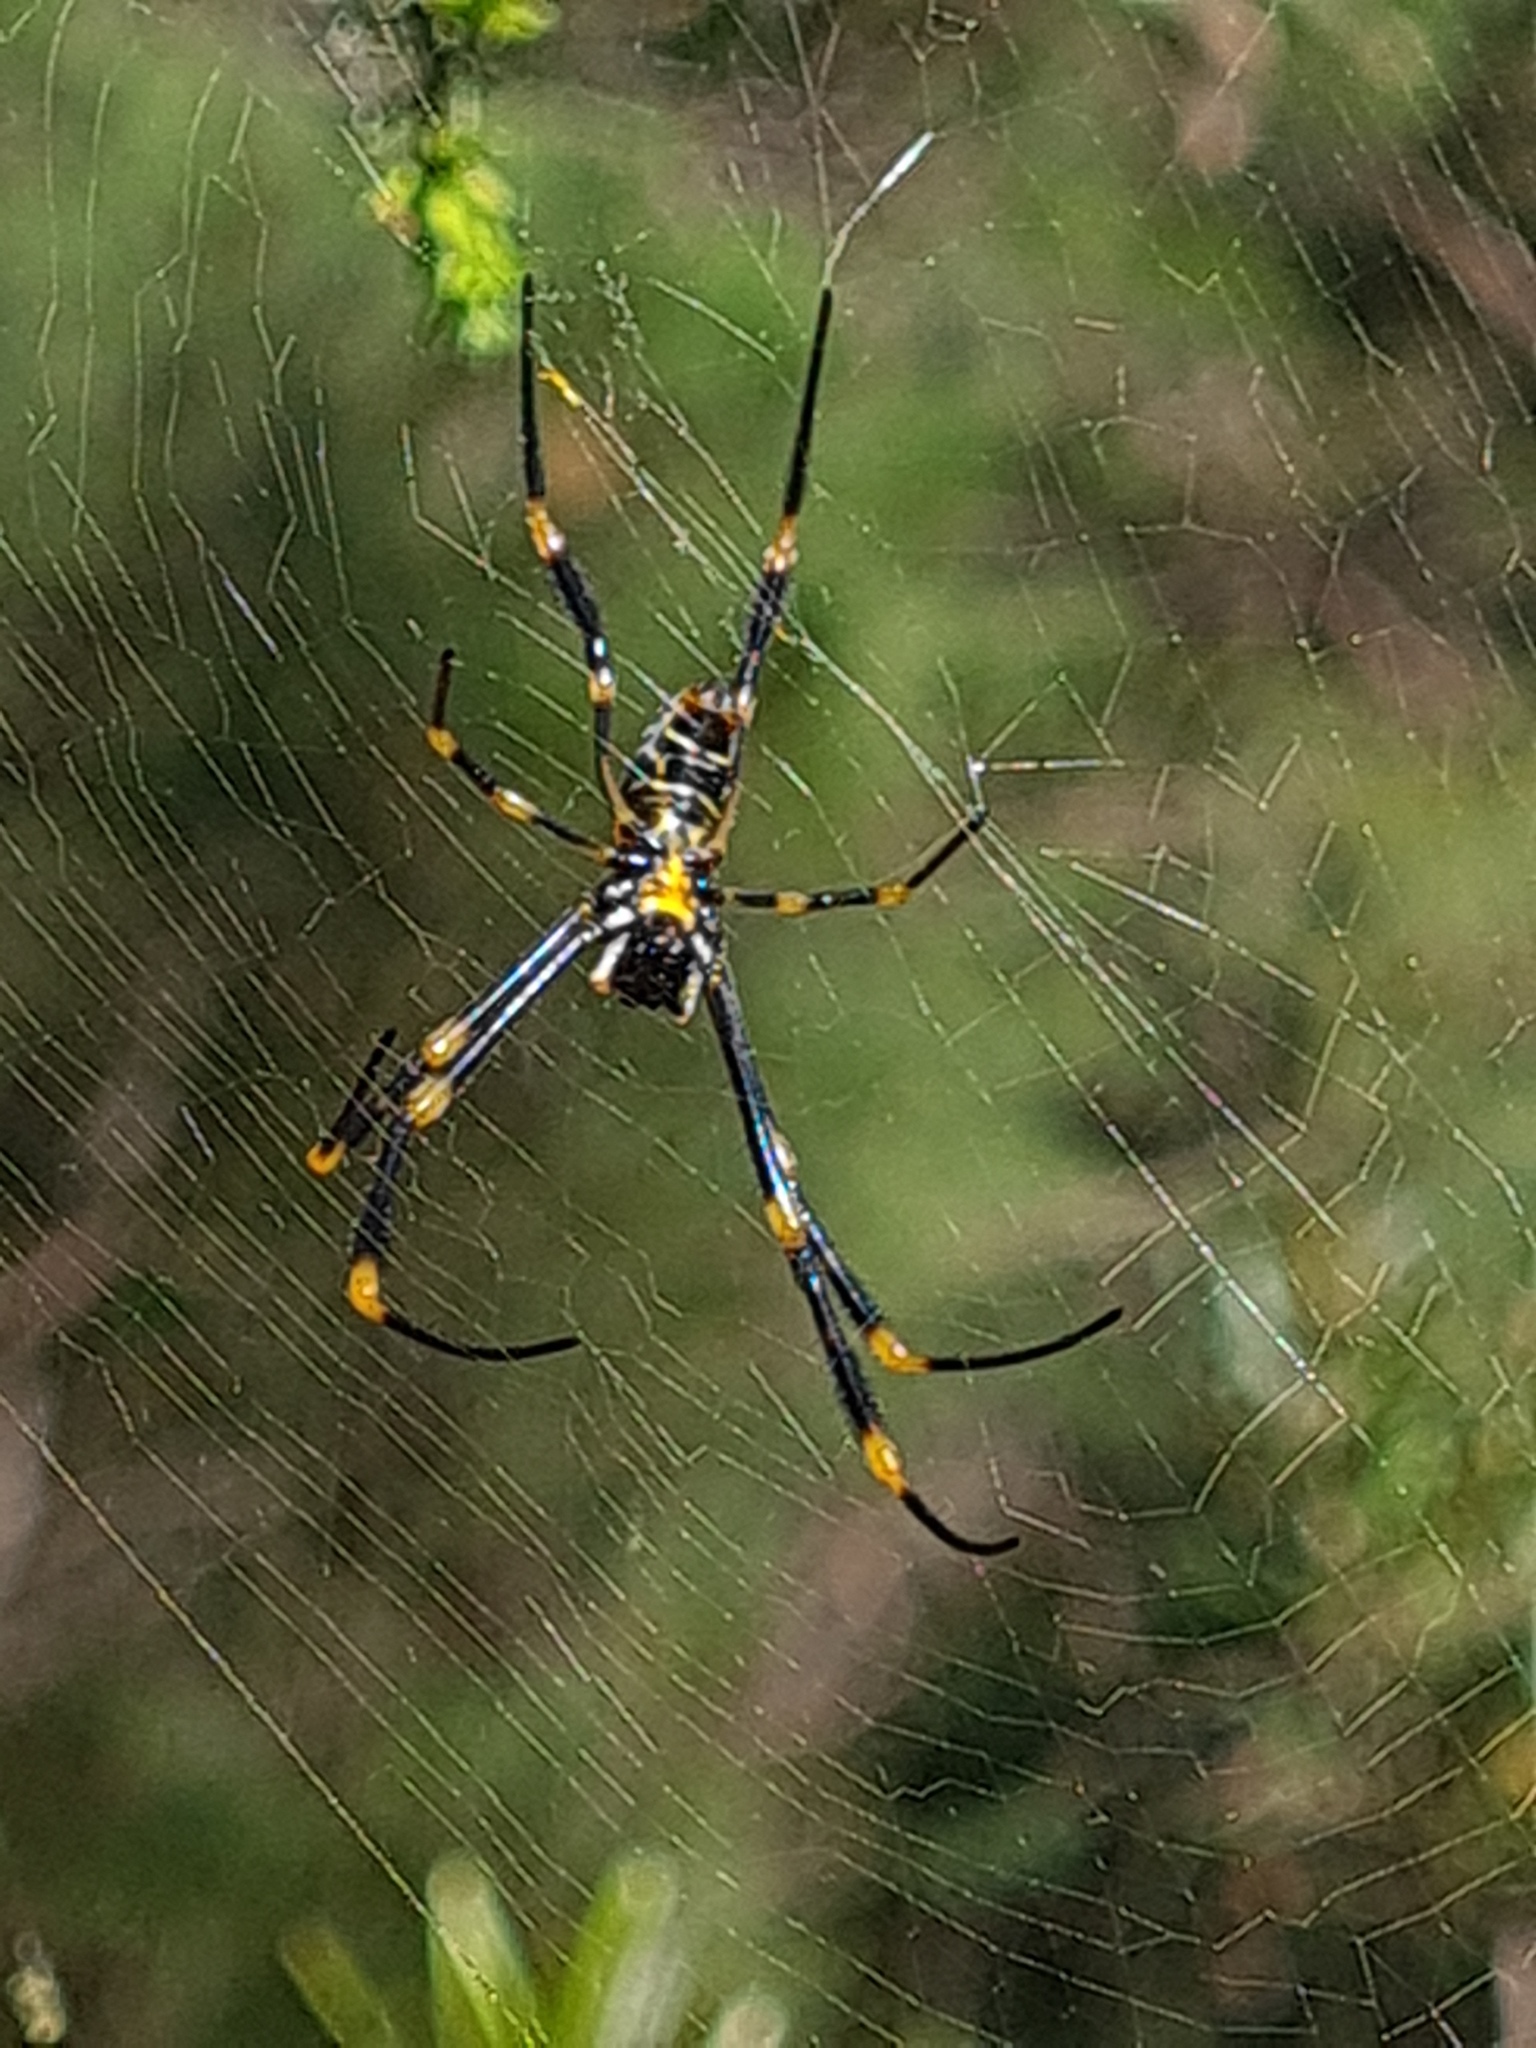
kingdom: Animalia
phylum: Arthropoda
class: Arachnida
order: Araneae
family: Araneidae
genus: Trichonephila
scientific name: Trichonephila plumipes
